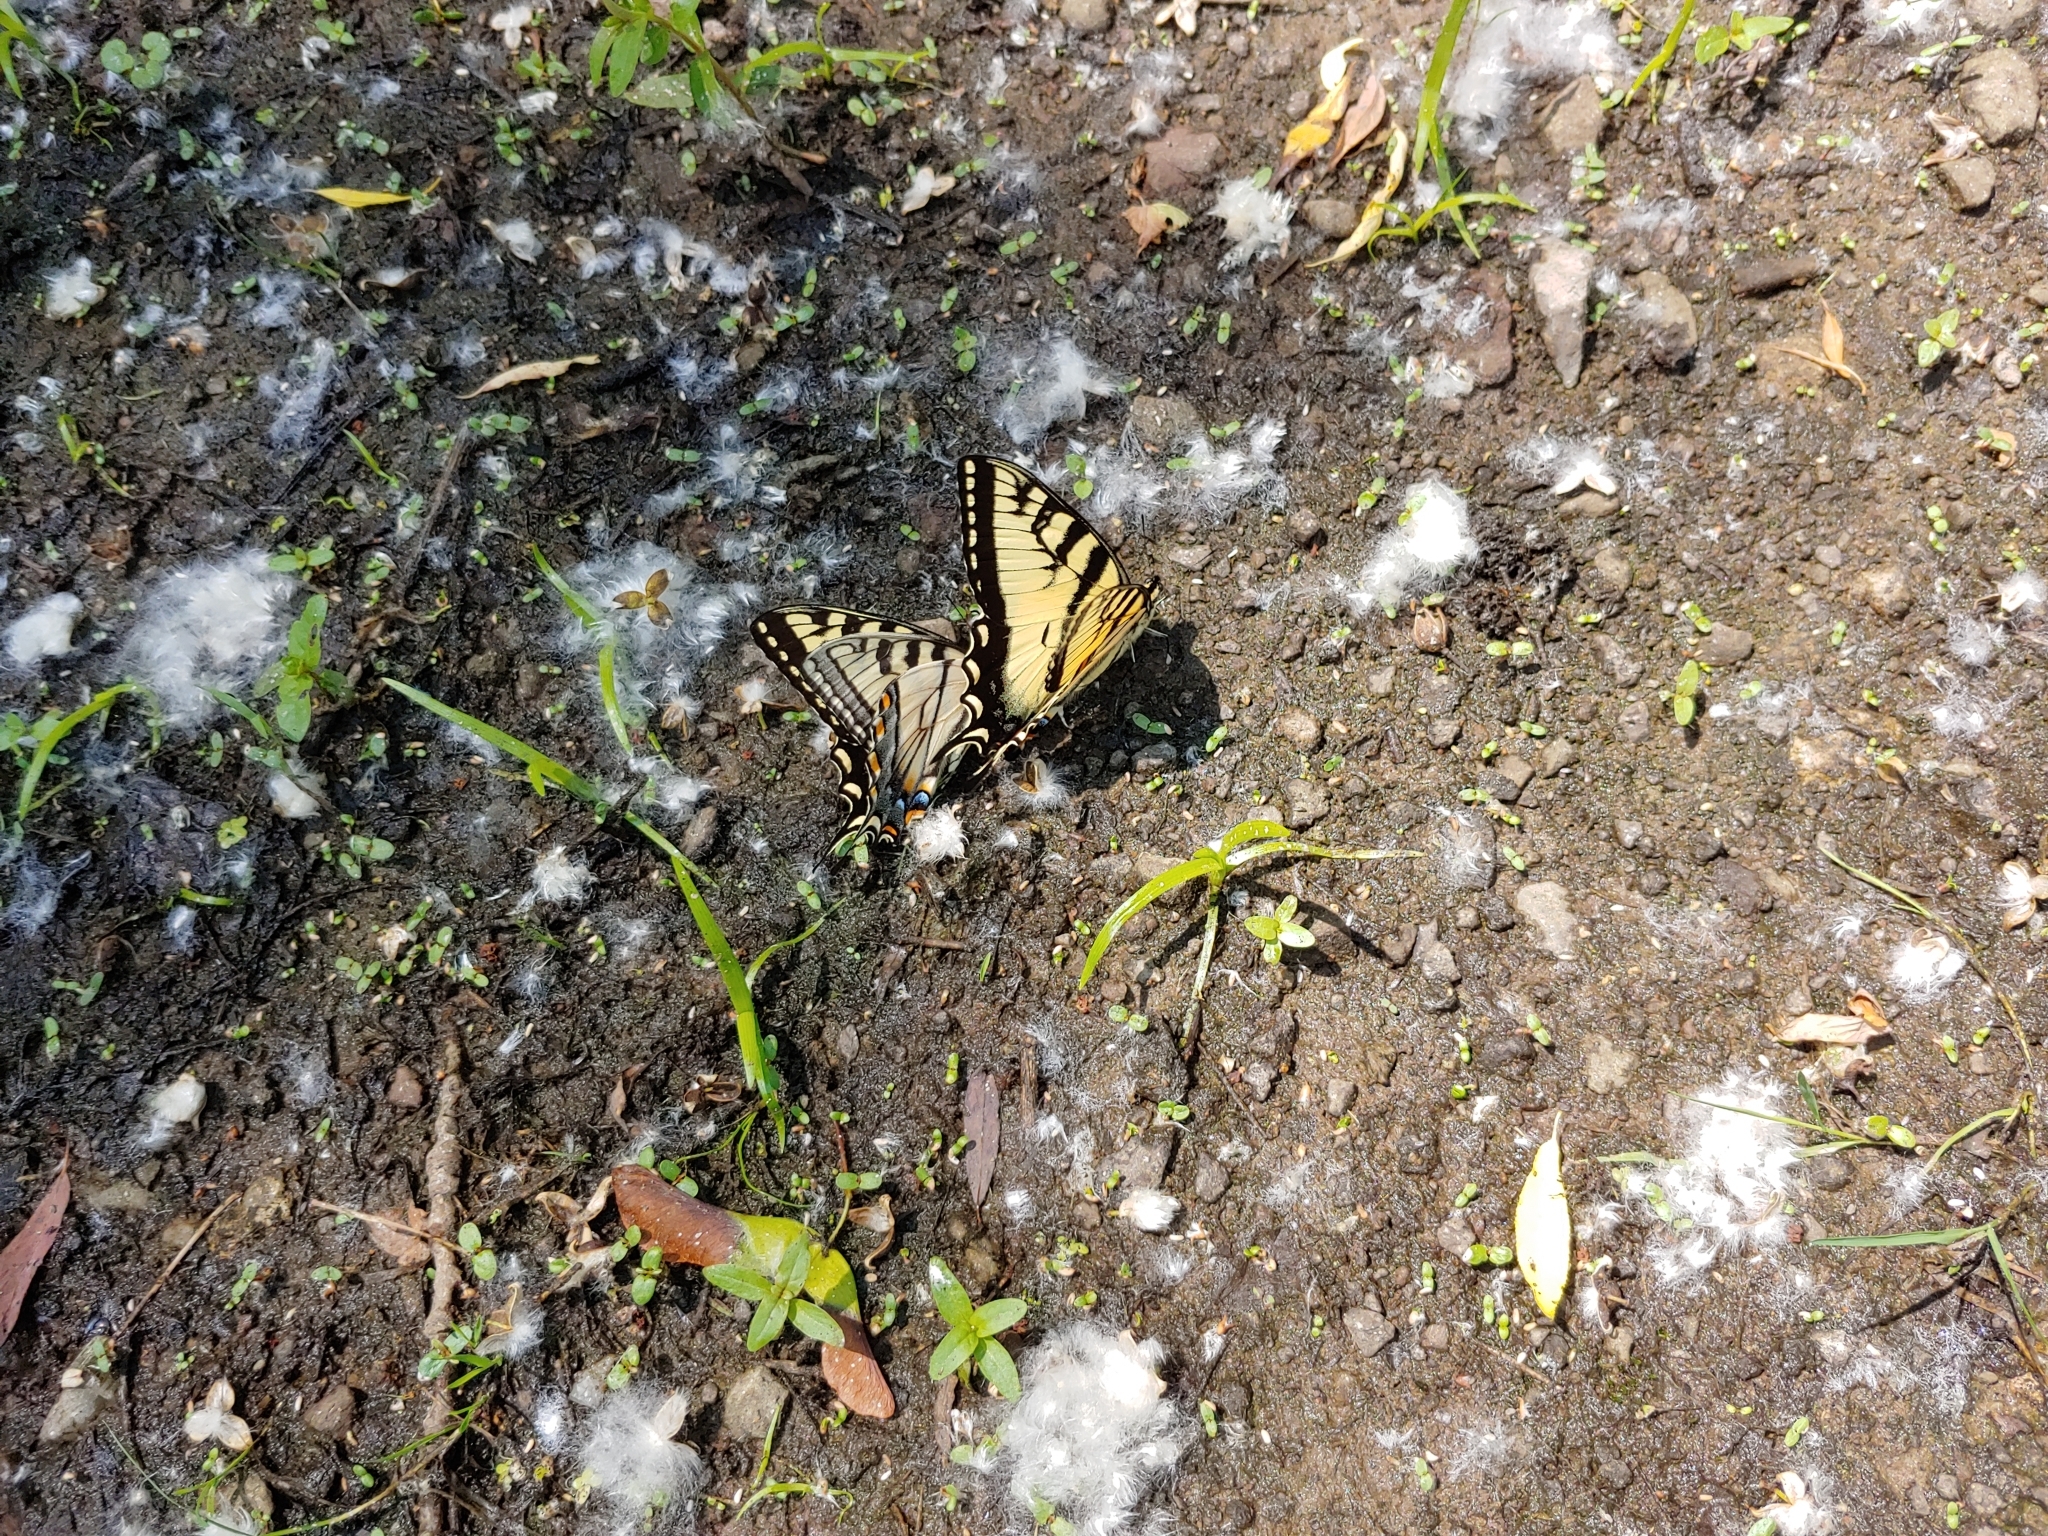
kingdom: Animalia
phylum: Arthropoda
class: Insecta
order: Lepidoptera
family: Papilionidae
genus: Papilio
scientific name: Papilio
